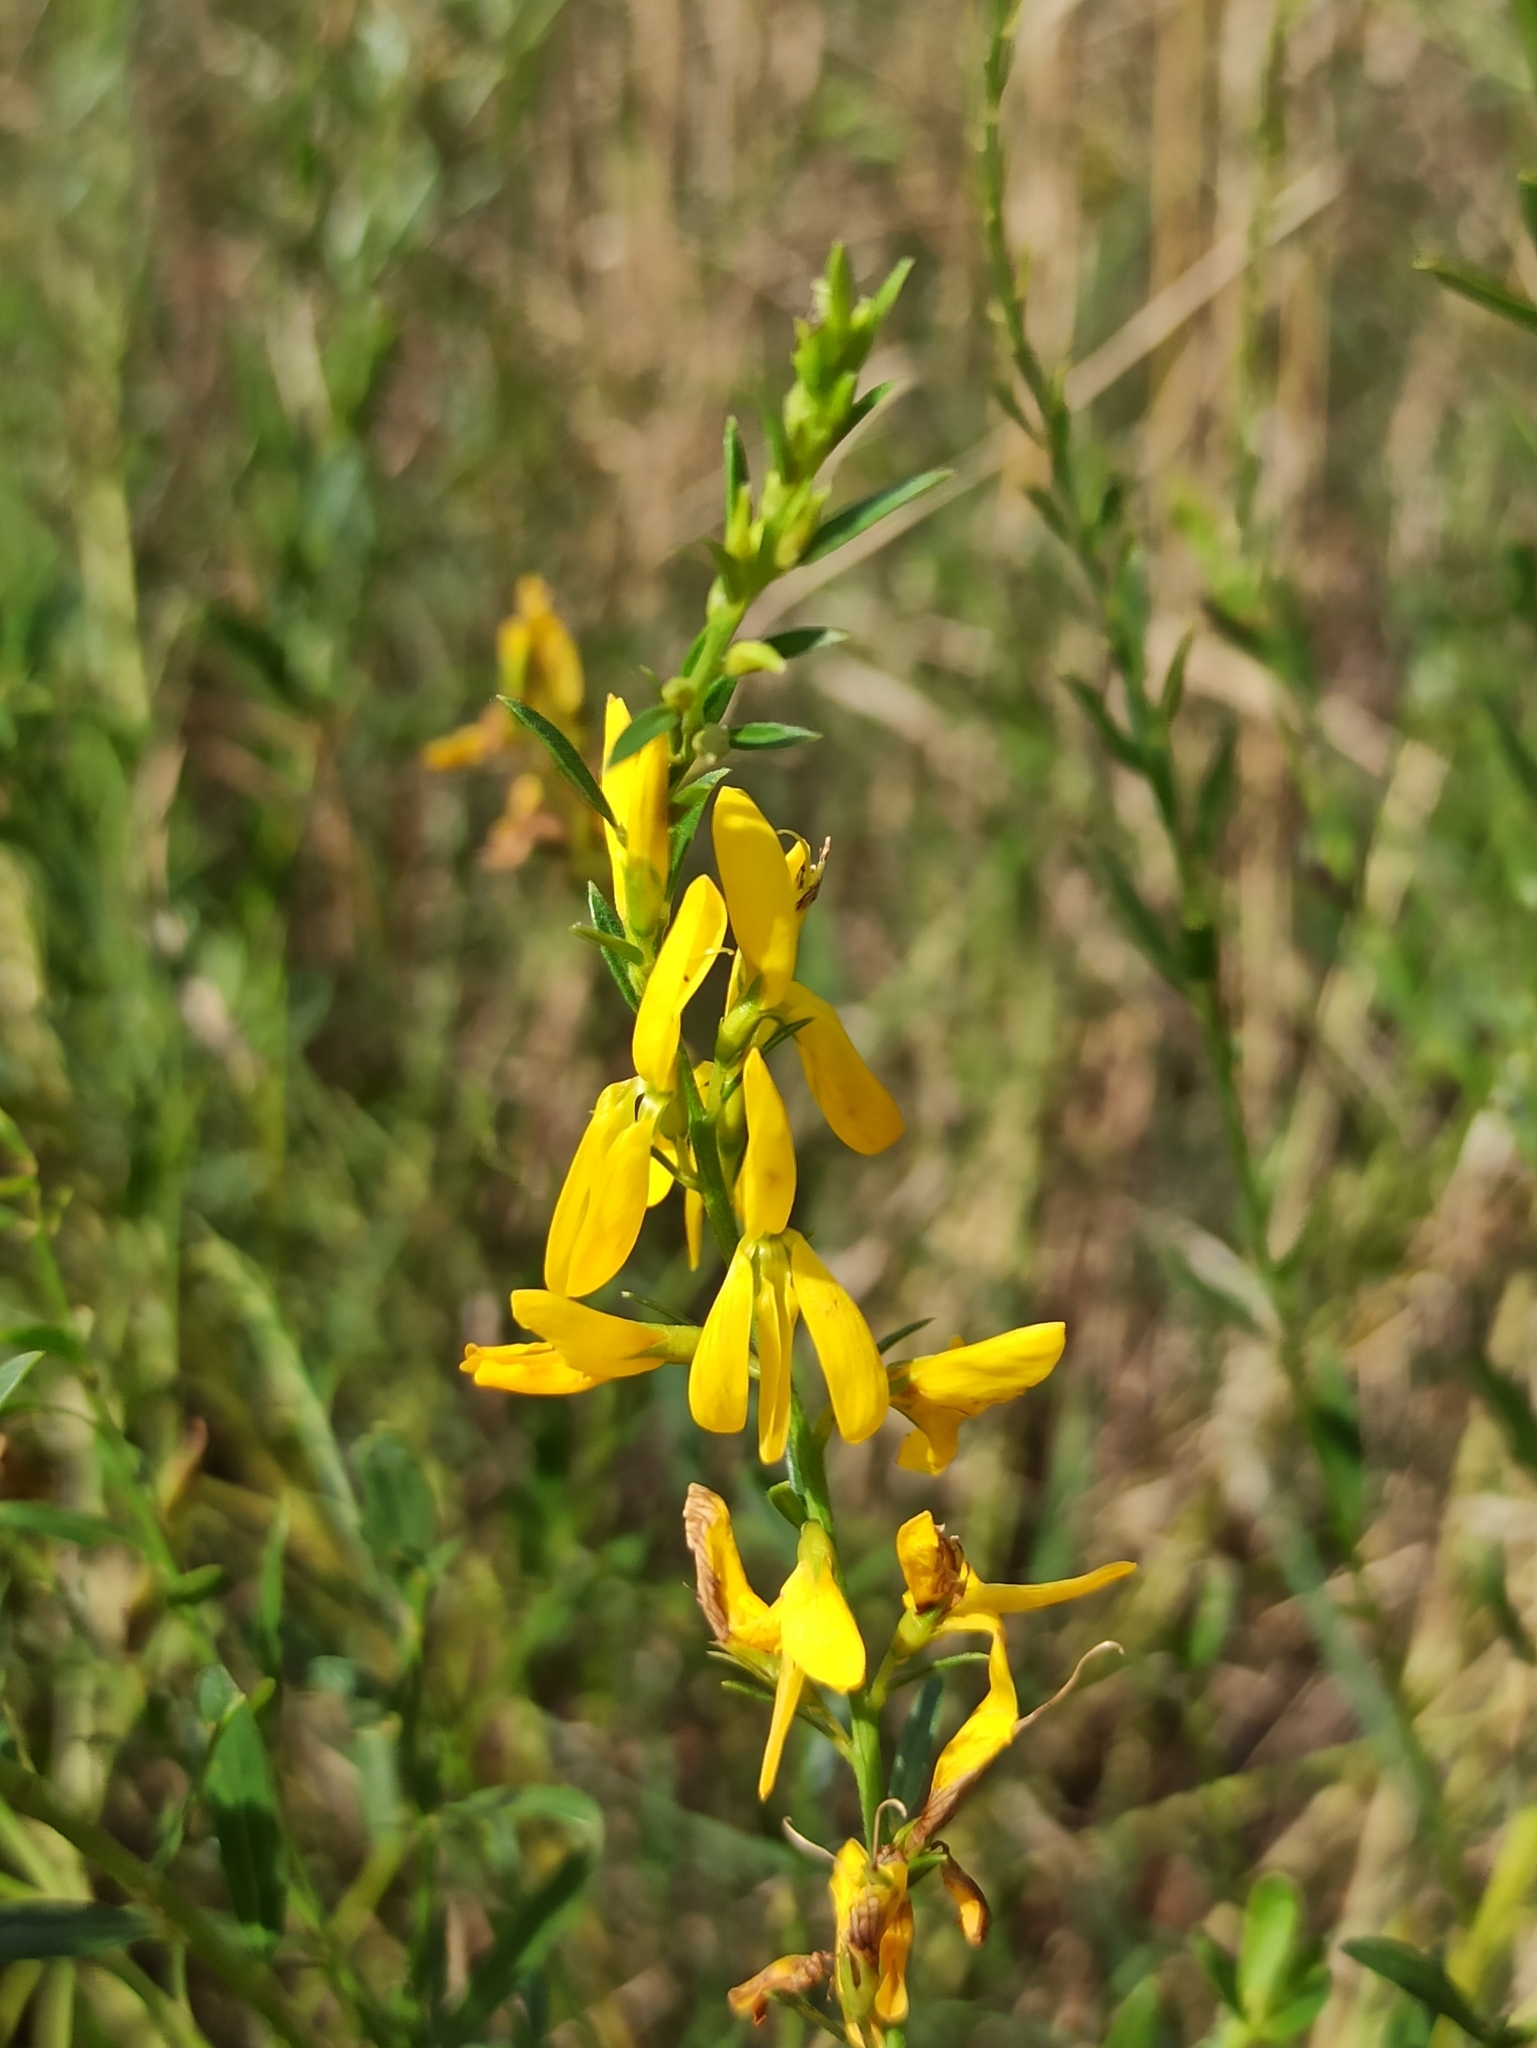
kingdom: Plantae
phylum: Tracheophyta
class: Magnoliopsida
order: Fabales
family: Fabaceae
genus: Genista
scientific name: Genista tinctoria
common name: Dyer's greenweed
